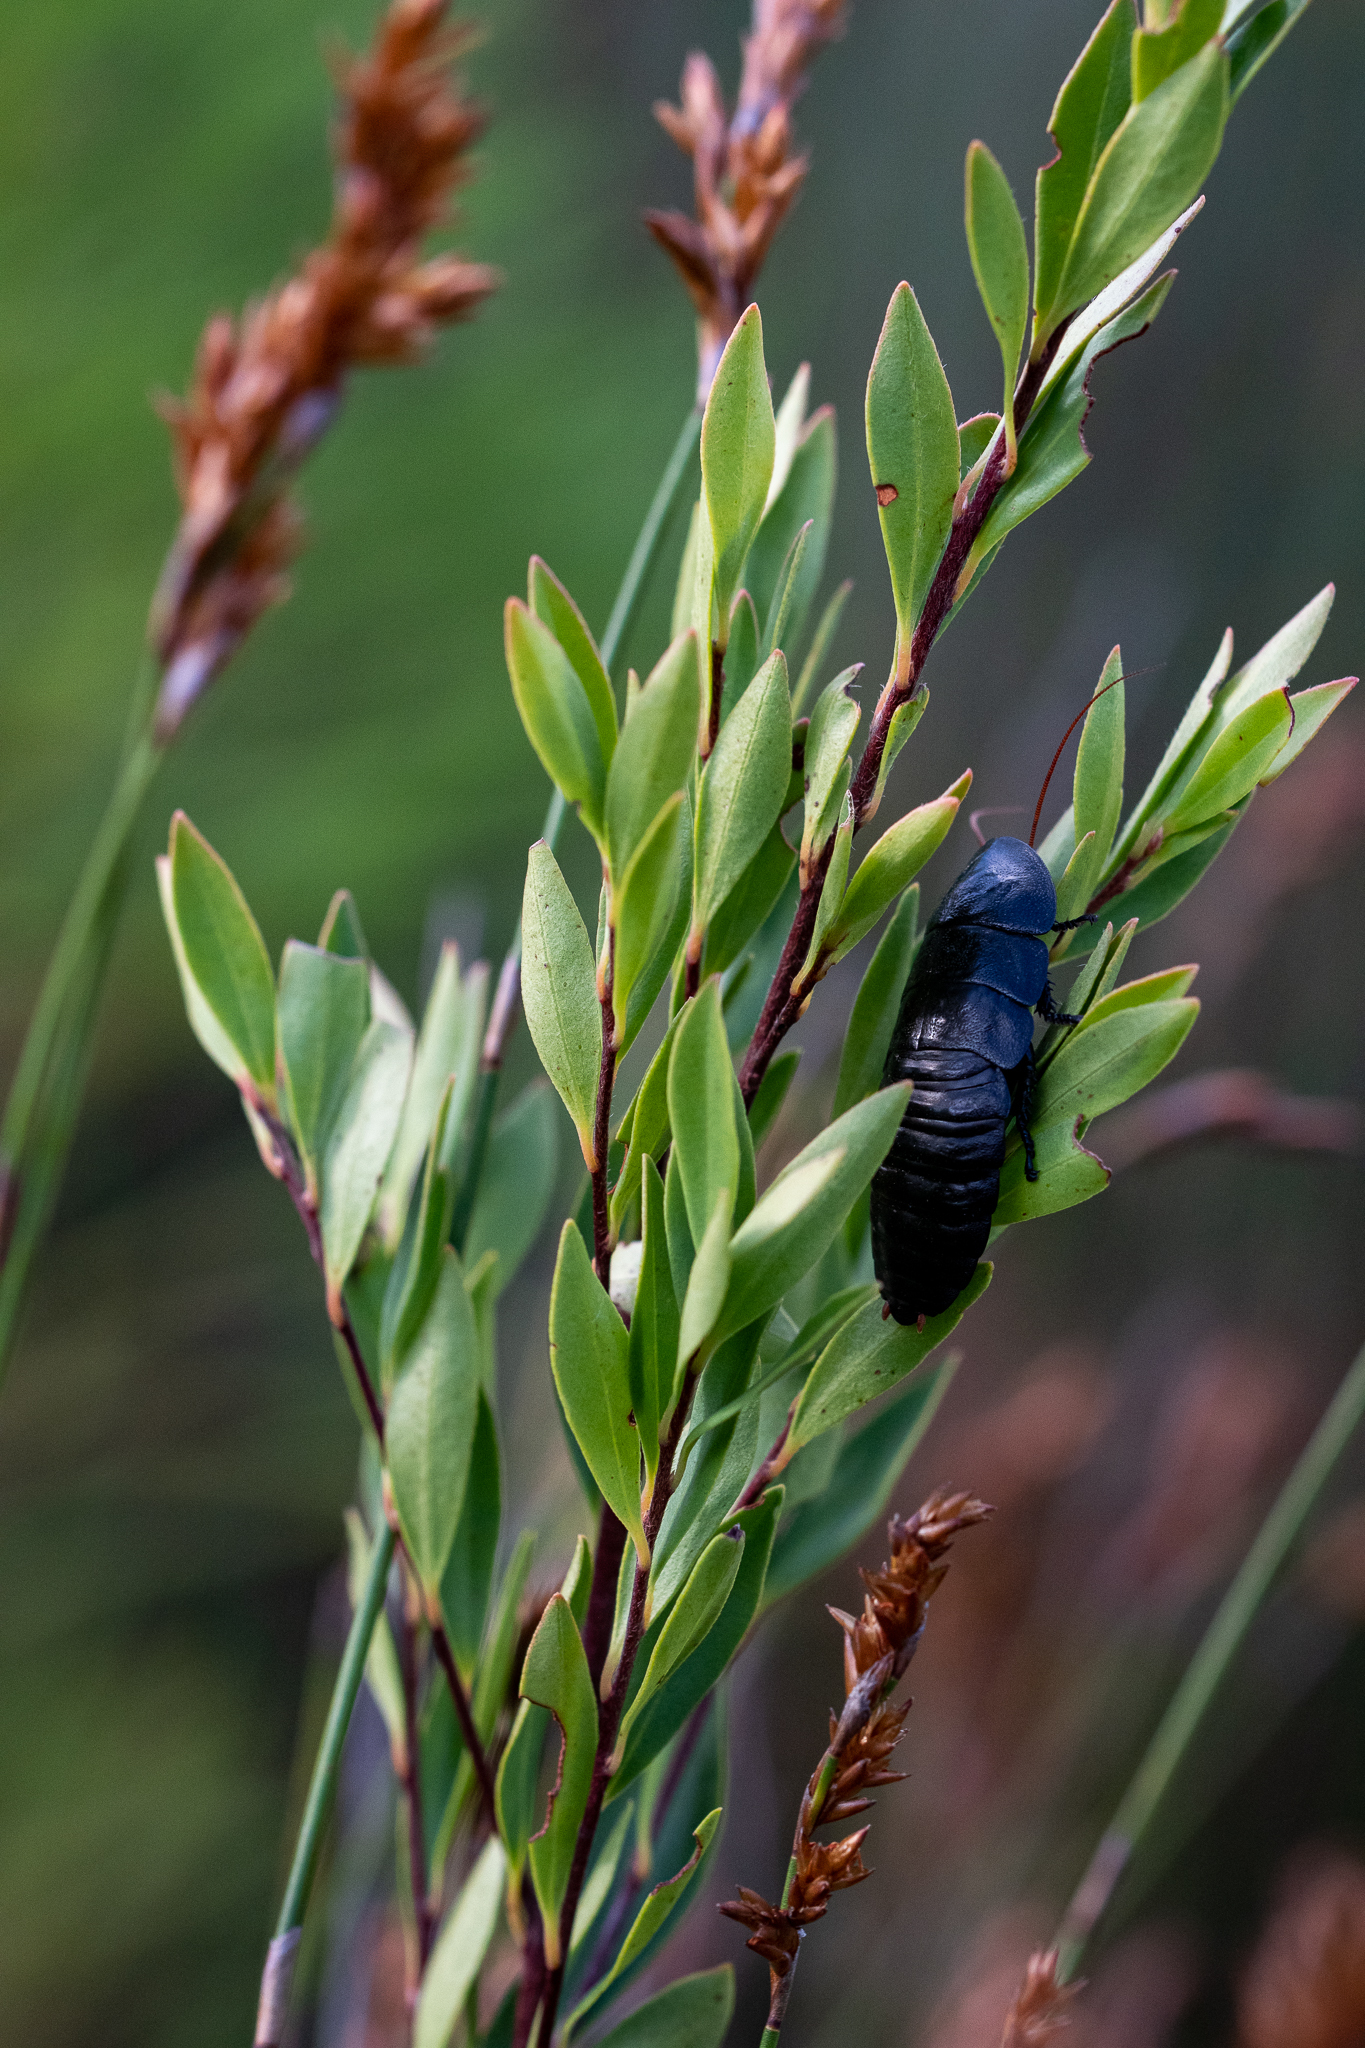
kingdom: Plantae
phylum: Tracheophyta
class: Magnoliopsida
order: Ericales
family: Ebenaceae
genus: Diospyros
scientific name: Diospyros glabra
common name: Fynbos star apple
